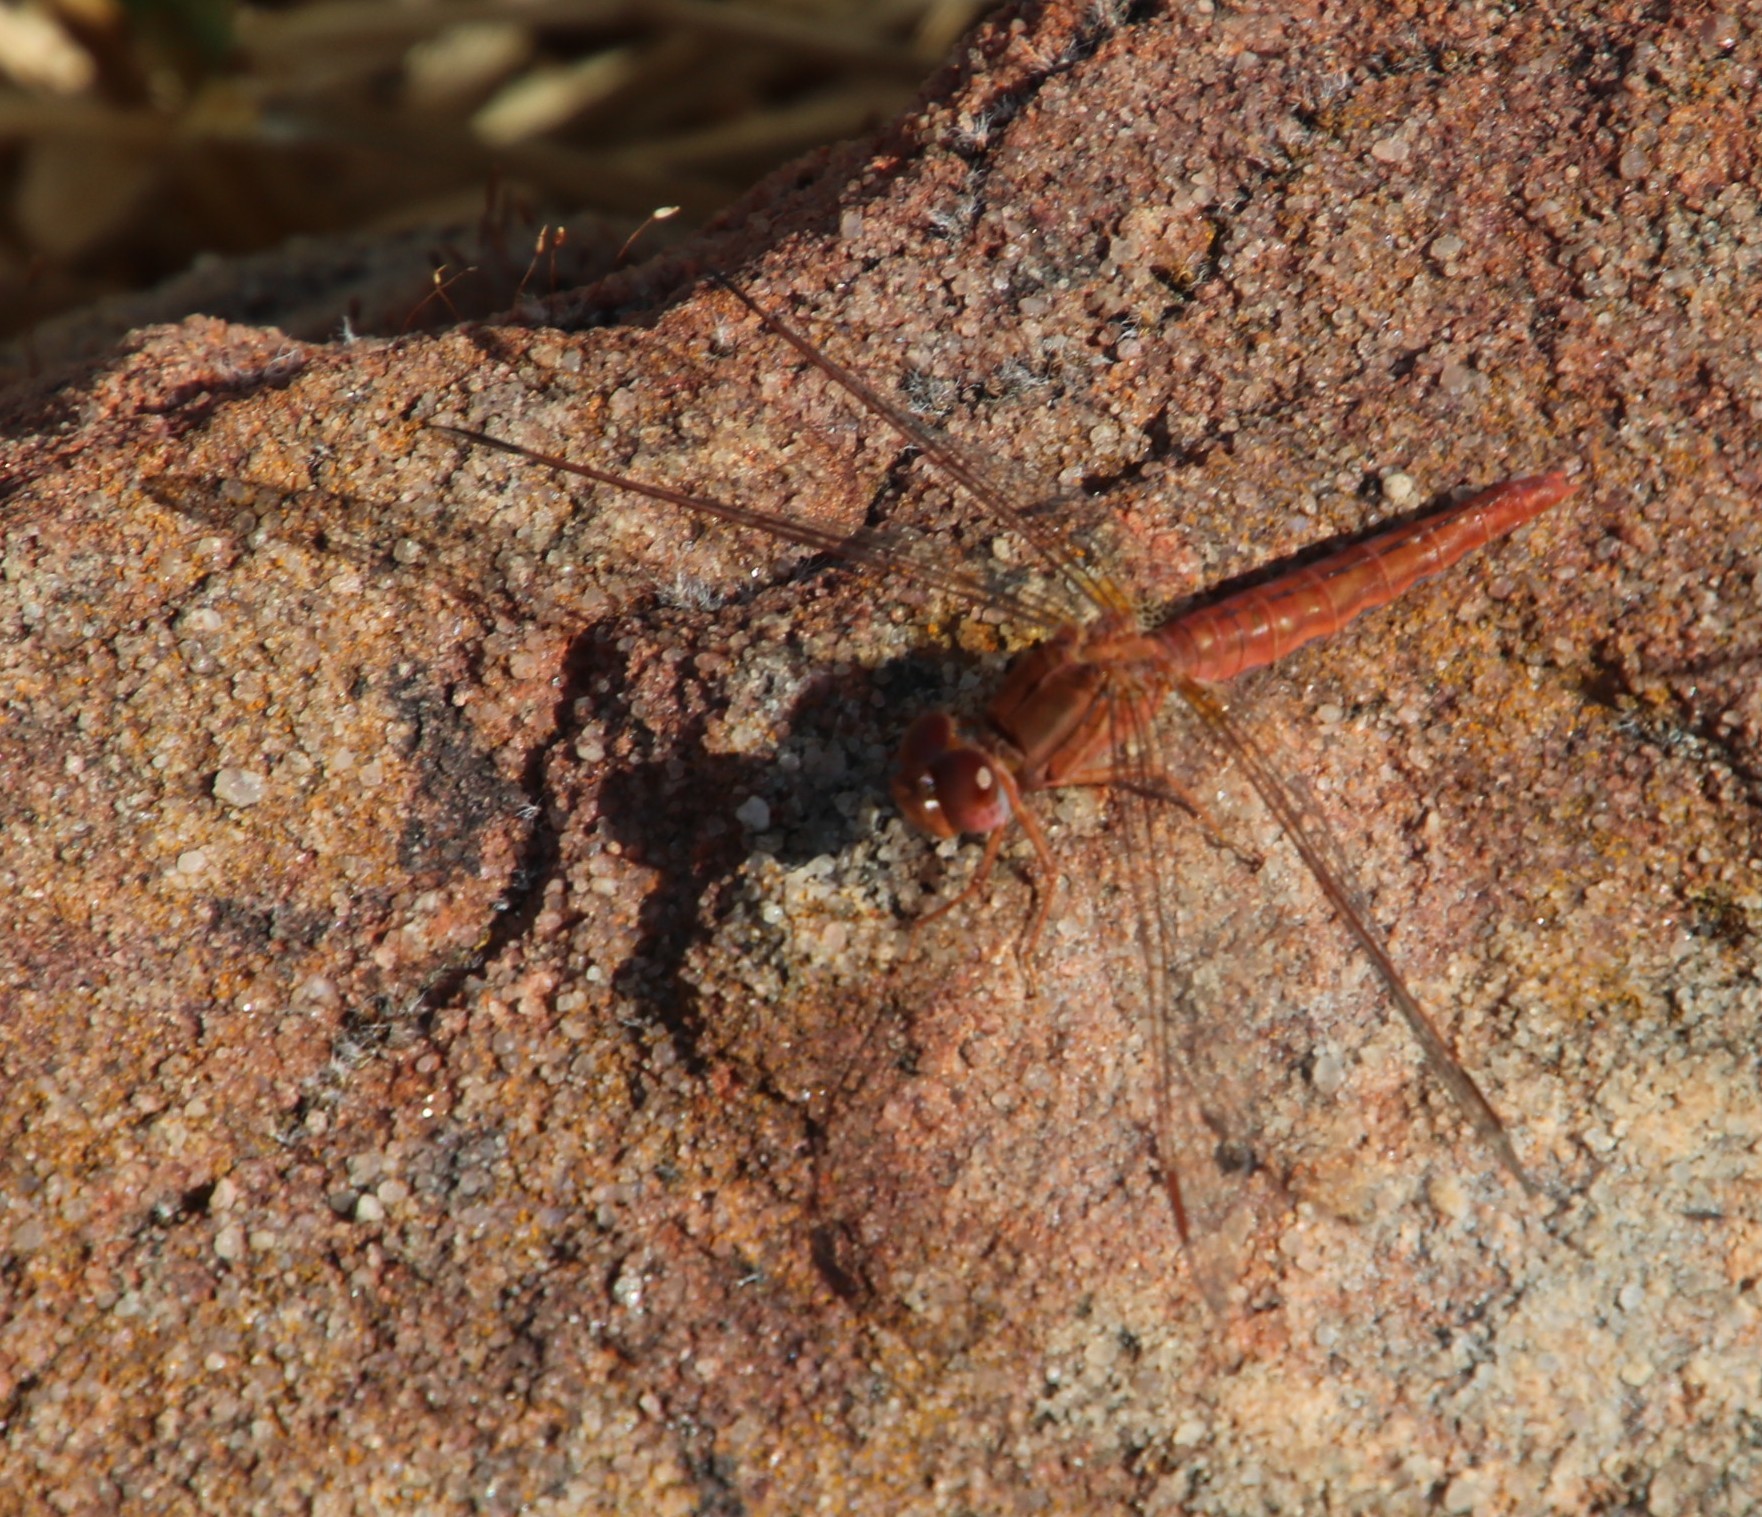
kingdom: Animalia
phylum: Arthropoda
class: Insecta
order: Odonata
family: Libellulidae
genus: Crocothemis
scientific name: Crocothemis sanguinolenta
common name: Little scarlet
